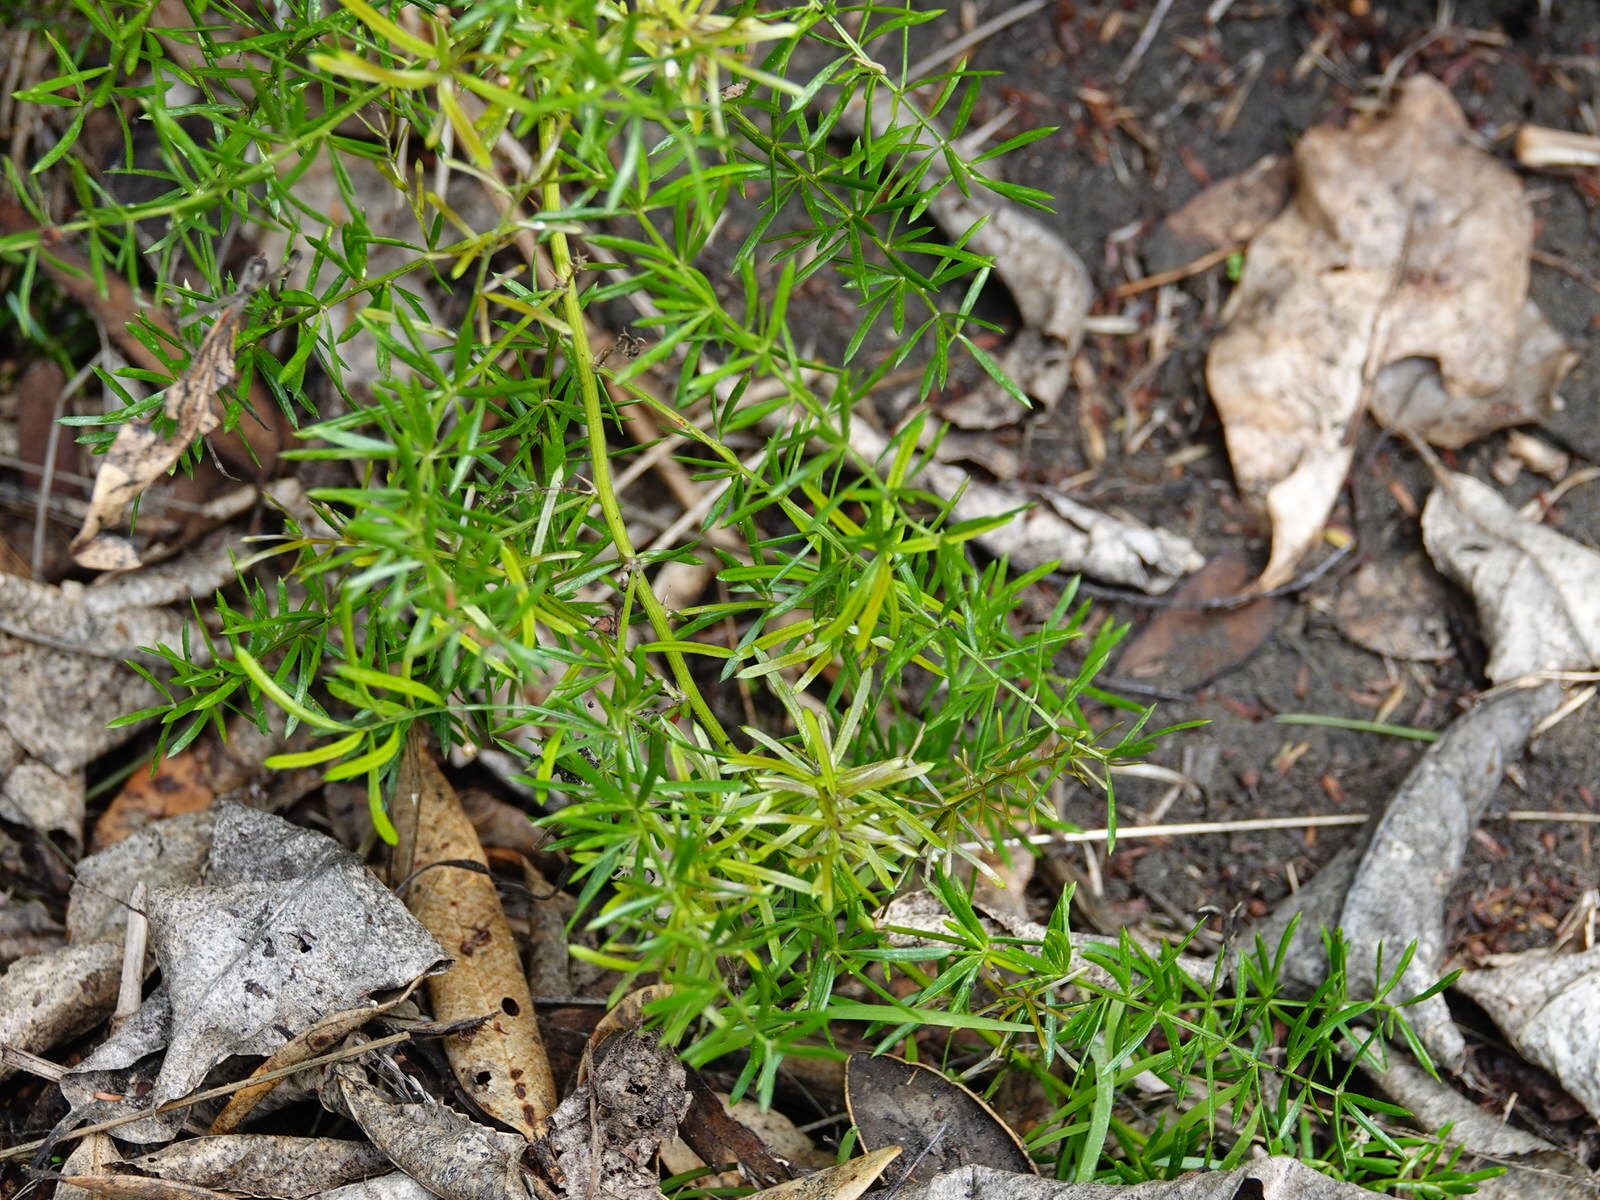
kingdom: Plantae
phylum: Tracheophyta
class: Liliopsida
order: Asparagales
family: Asparagaceae
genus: Asparagus
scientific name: Asparagus aethiopicus
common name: Sprenger's asparagus fern
